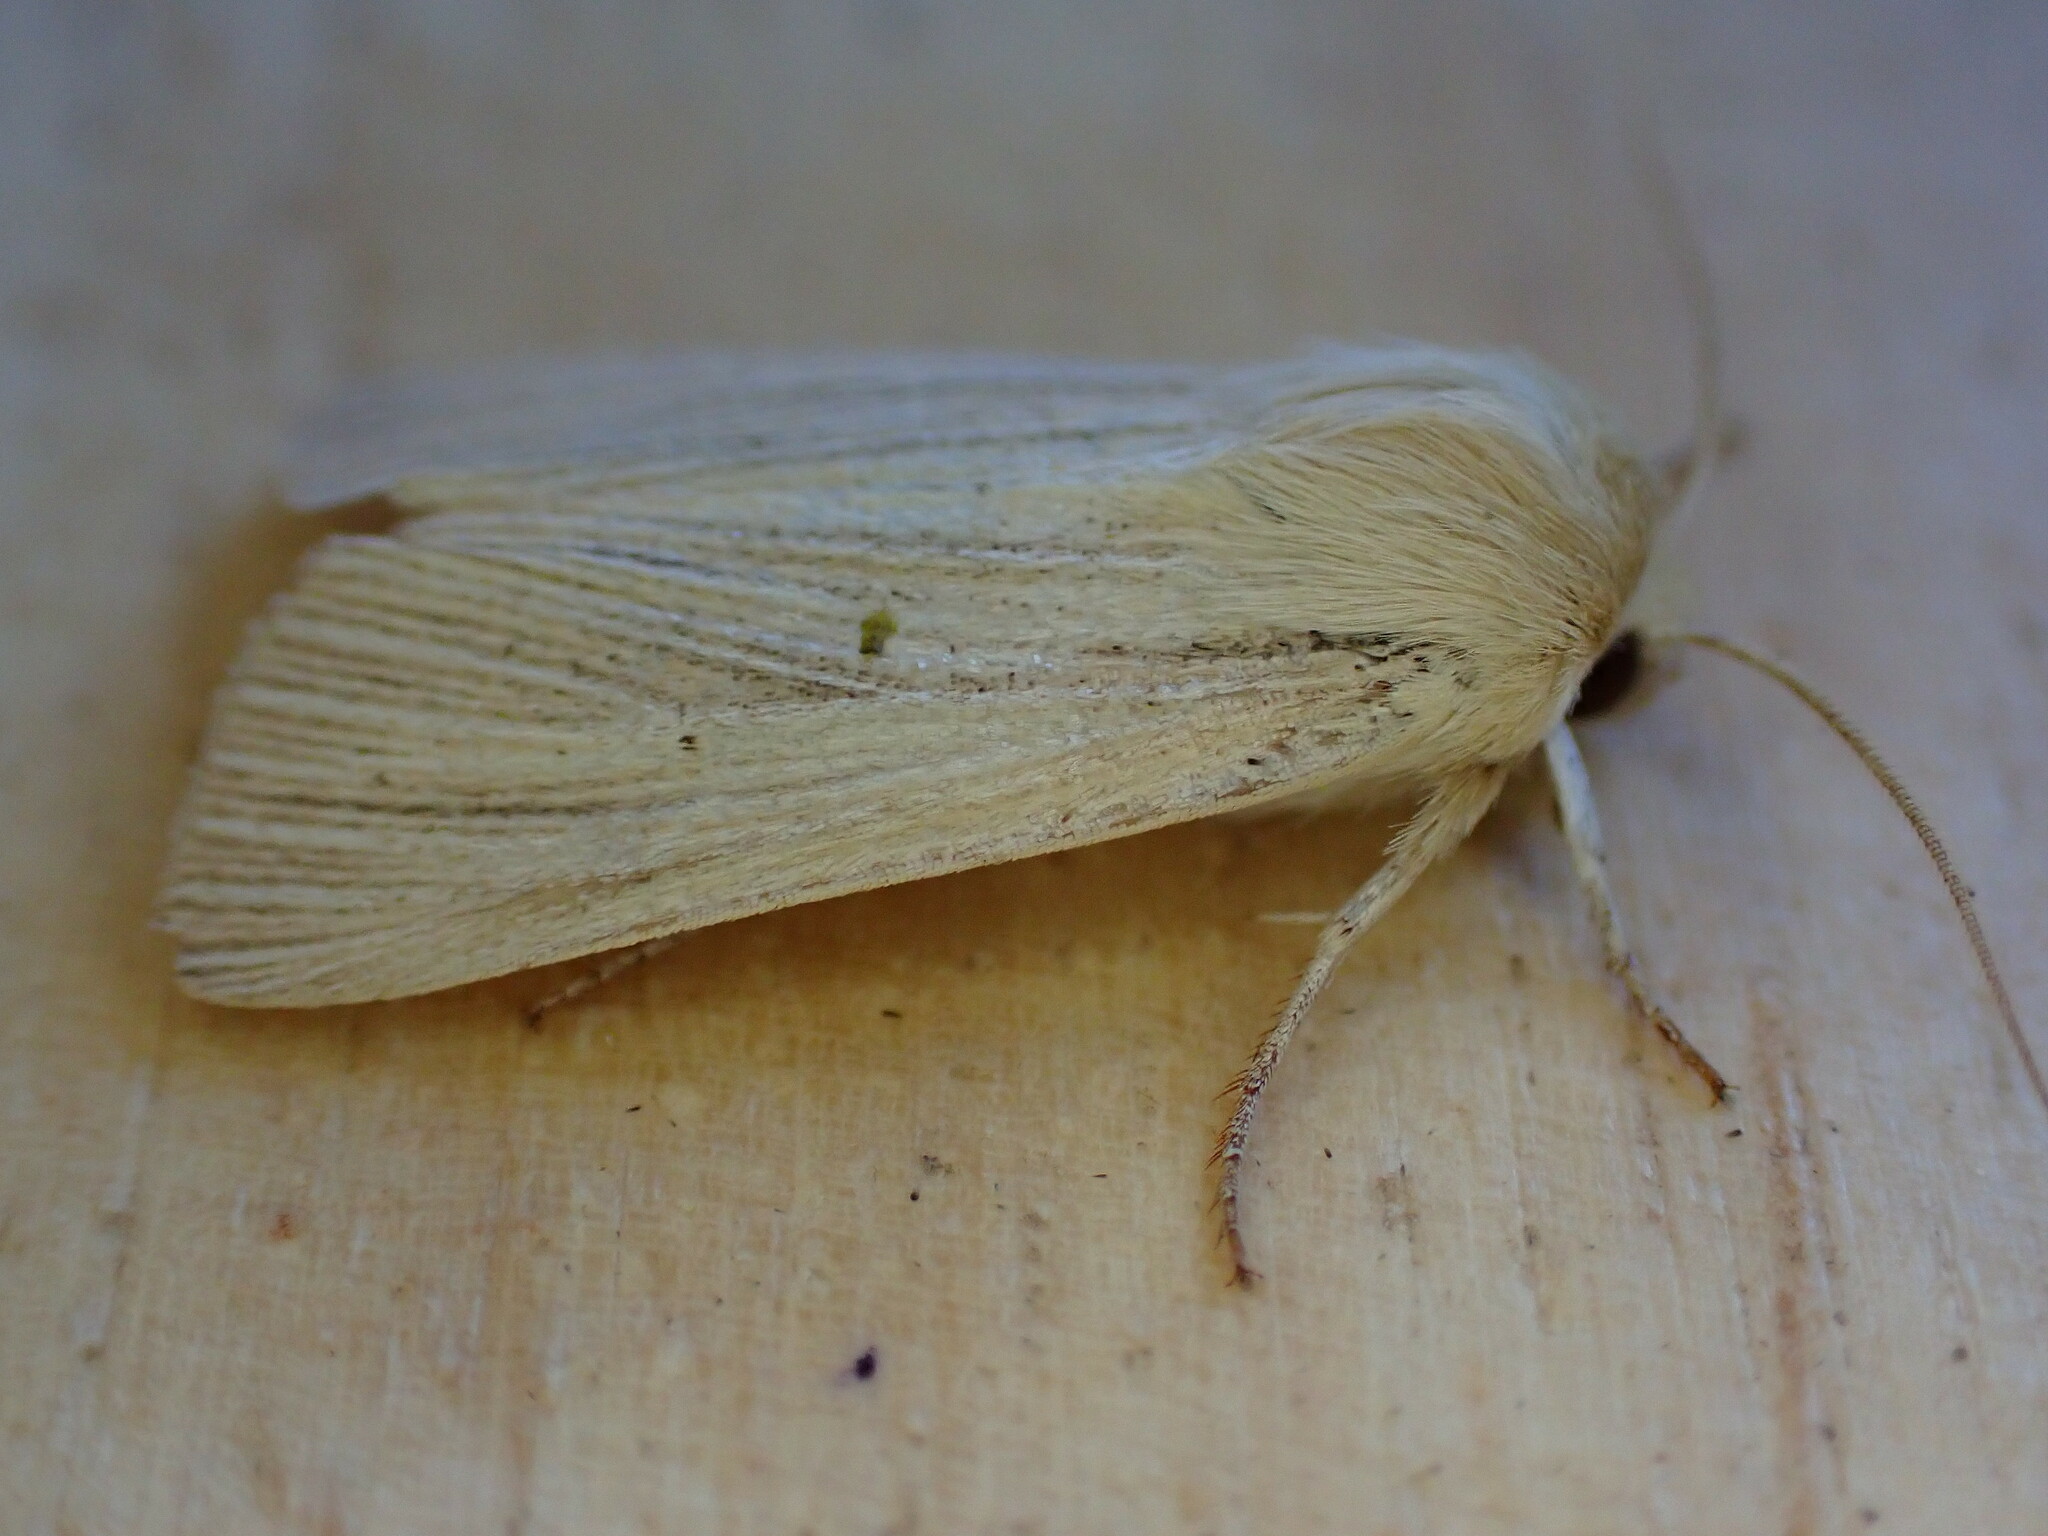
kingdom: Animalia
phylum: Arthropoda
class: Insecta
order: Lepidoptera
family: Noctuidae
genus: Mythimna
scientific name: Mythimna pallens
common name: Common wainscot
